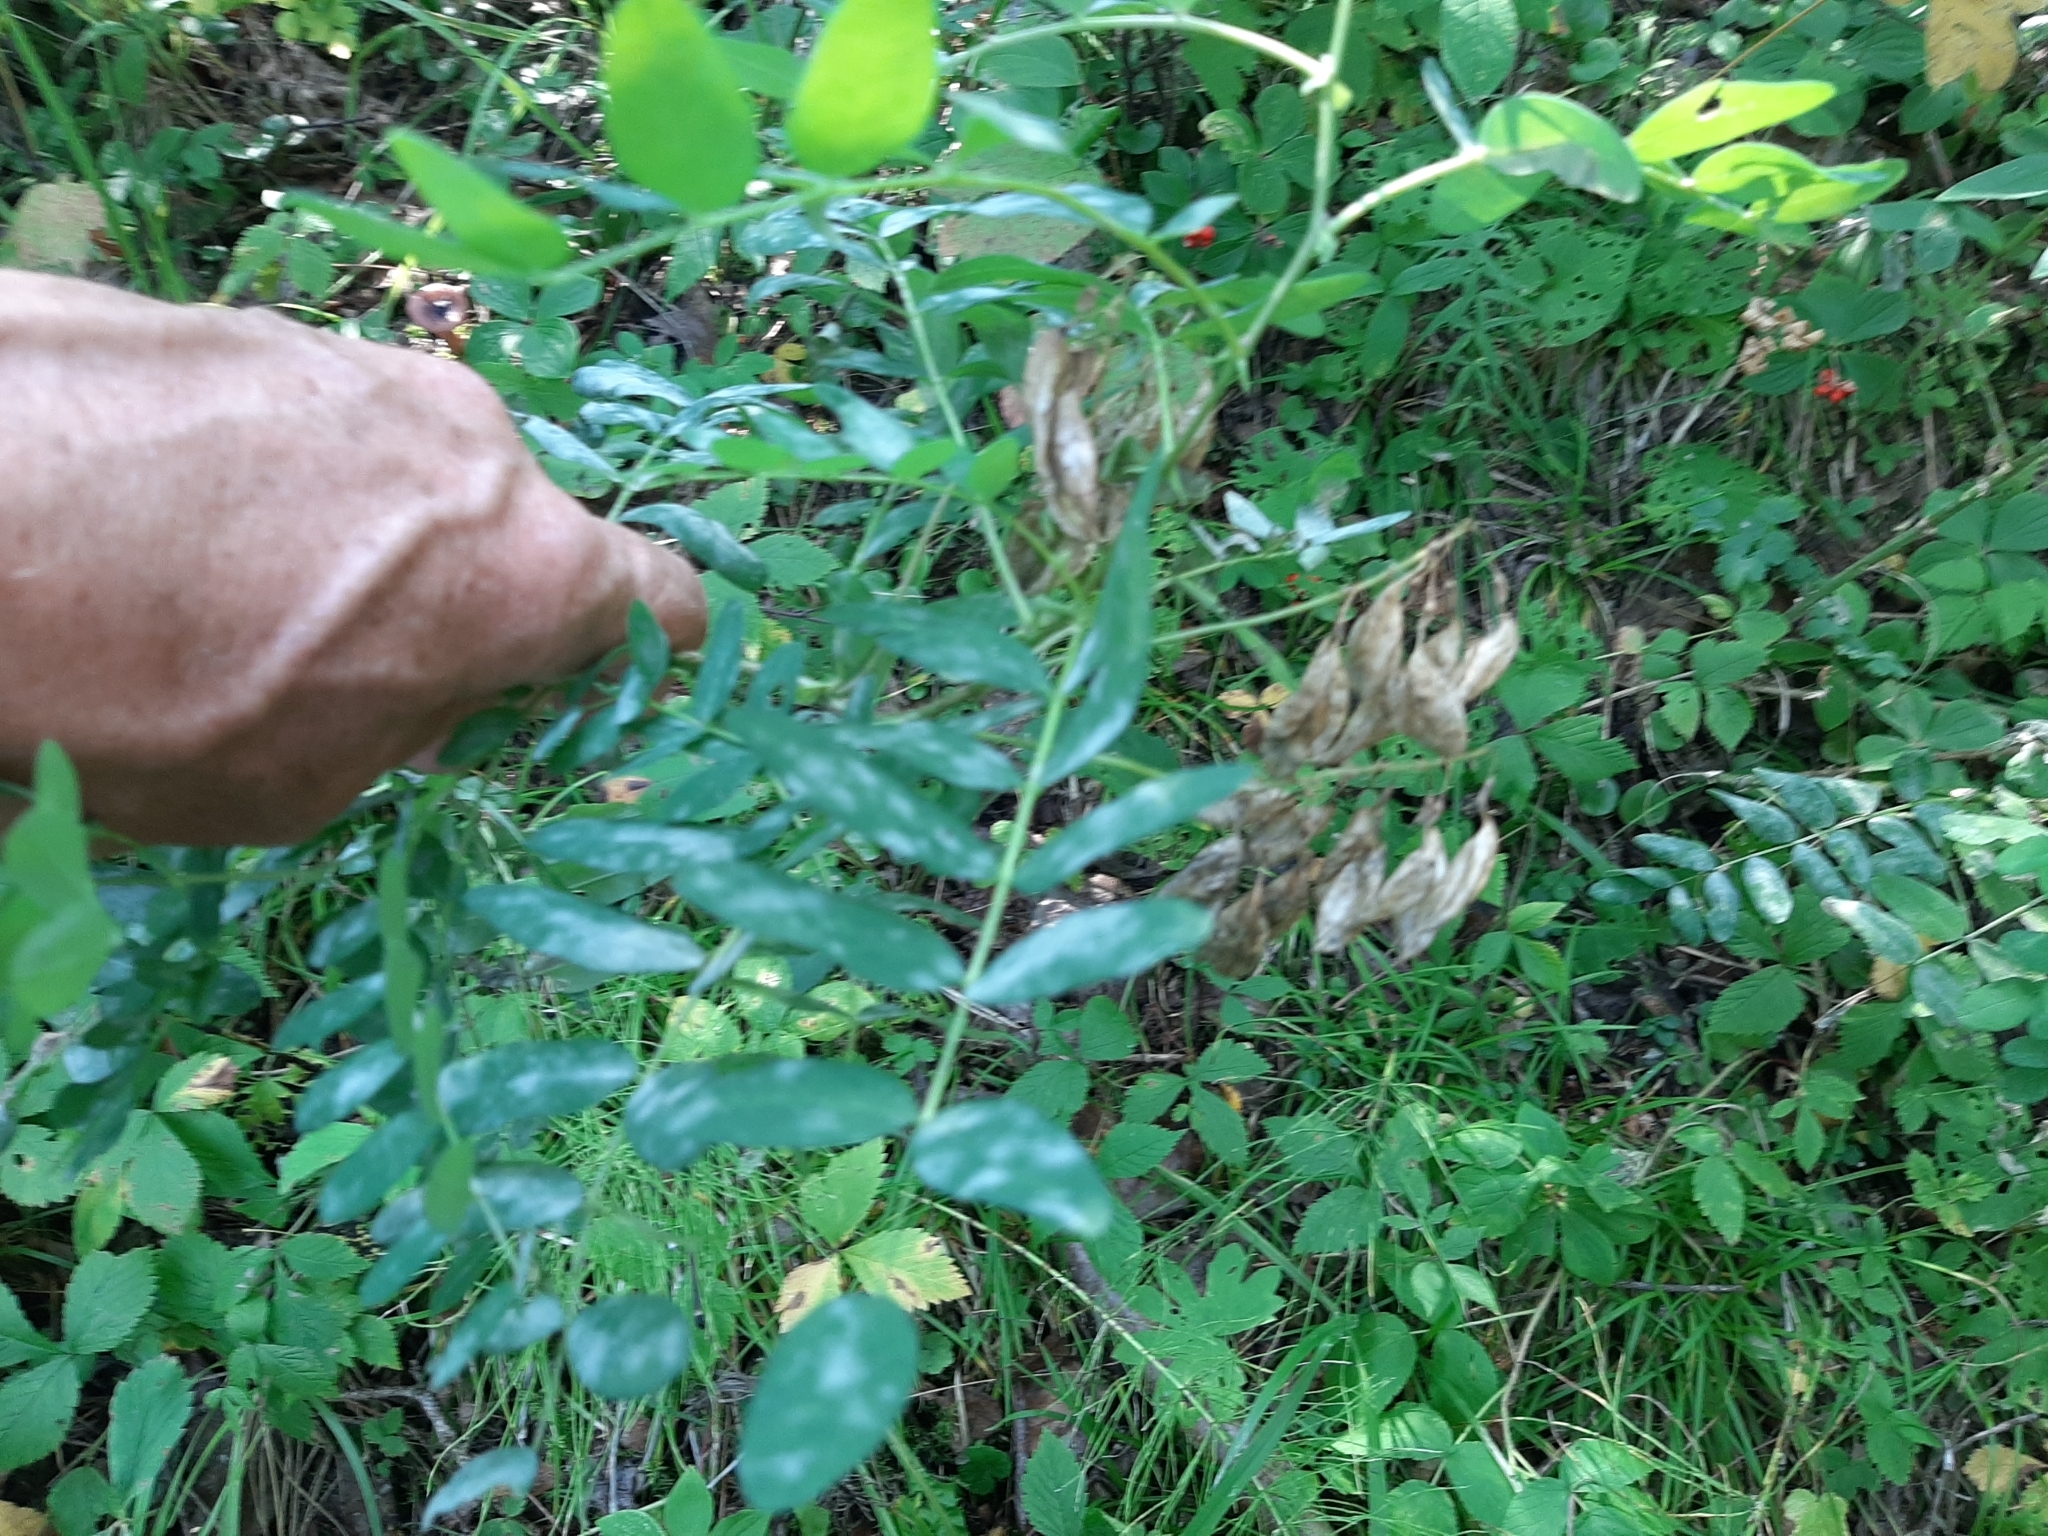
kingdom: Plantae
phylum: Tracheophyta
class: Magnoliopsida
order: Fabales
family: Fabaceae
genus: Astragalus
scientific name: Astragalus americanus
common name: American milk-vetch
